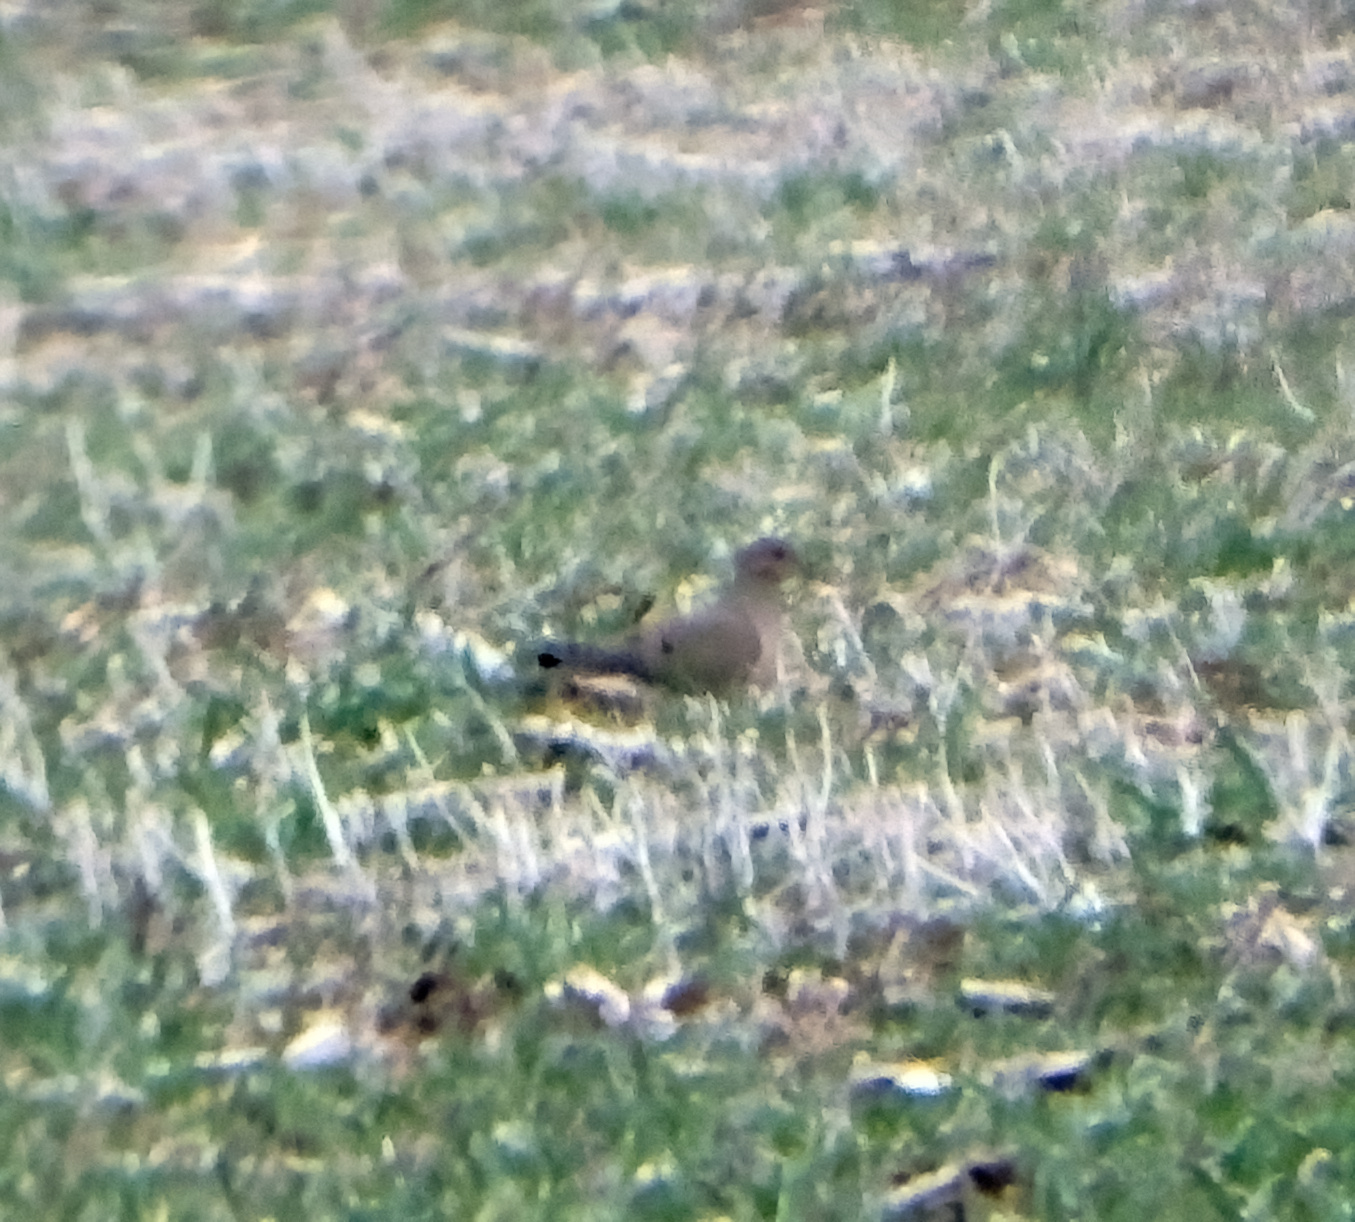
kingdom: Animalia
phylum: Chordata
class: Aves
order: Columbiformes
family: Columbidae
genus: Zenaida
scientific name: Zenaida macroura
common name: Mourning dove
